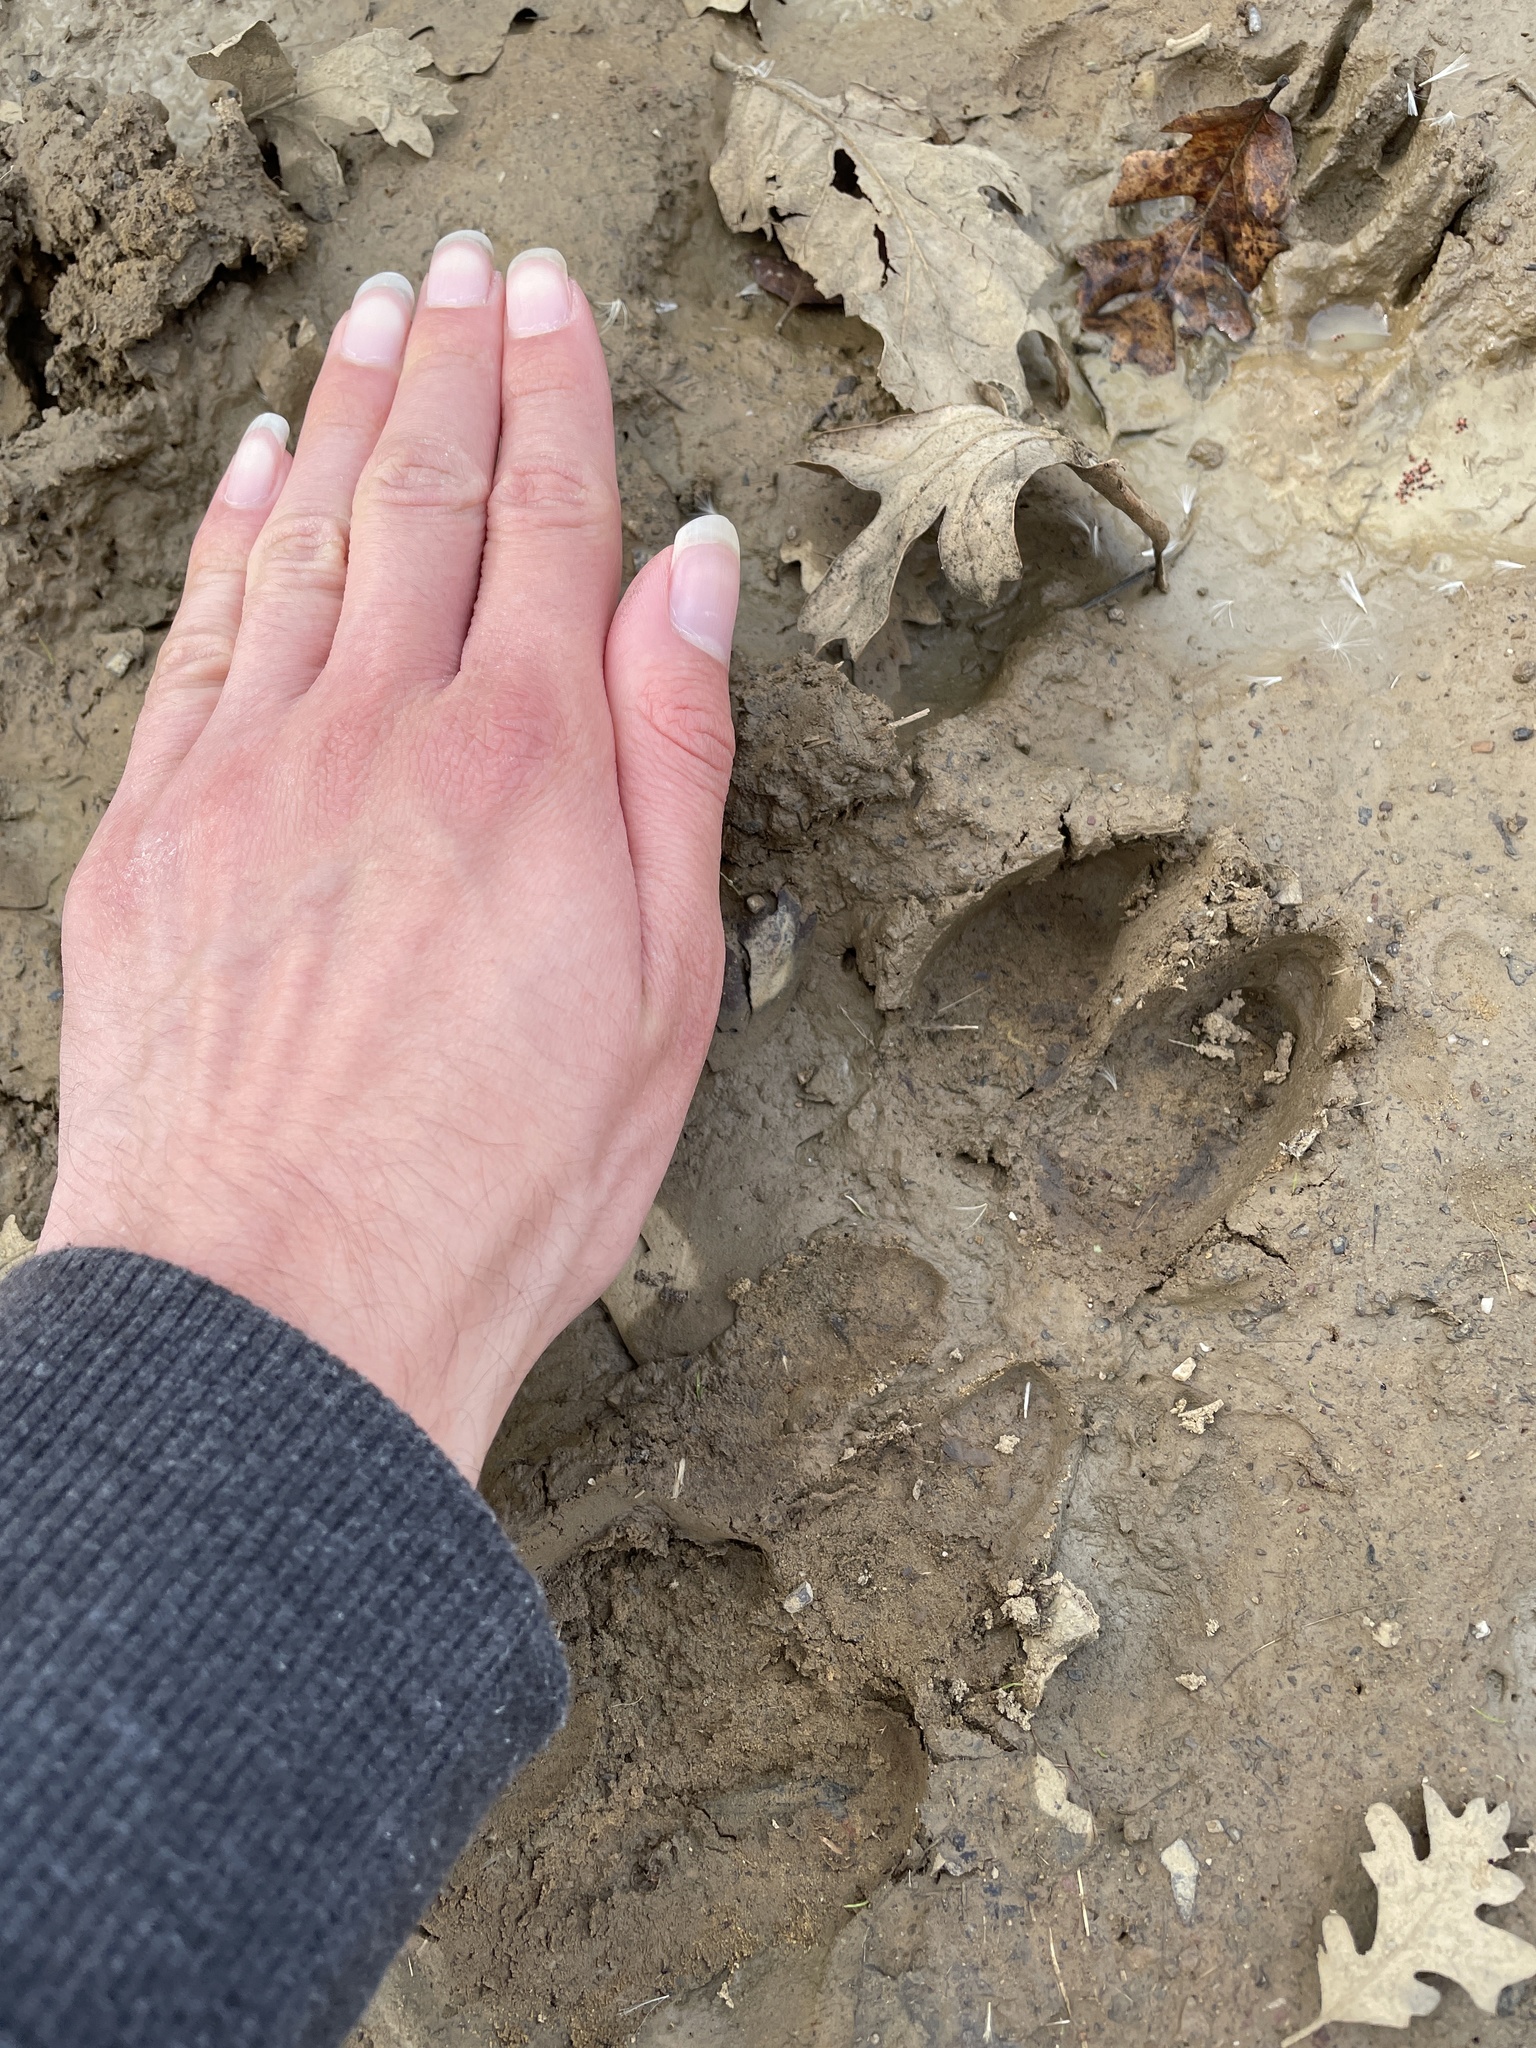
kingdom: Animalia
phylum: Chordata
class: Mammalia
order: Artiodactyla
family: Suidae
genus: Sus
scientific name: Sus scrofa
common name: Wild boar
